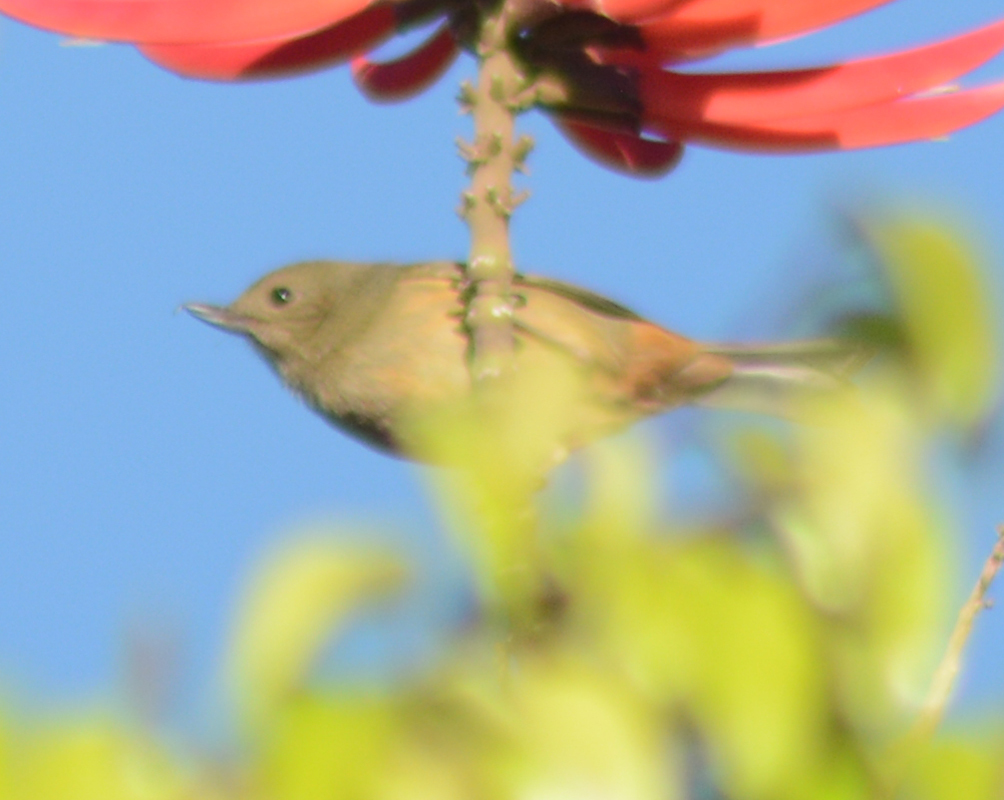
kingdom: Animalia
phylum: Chordata
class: Aves
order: Passeriformes
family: Thraupidae
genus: Diglossa
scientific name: Diglossa baritula
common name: Cinnamon-bellied flowerpiercer
